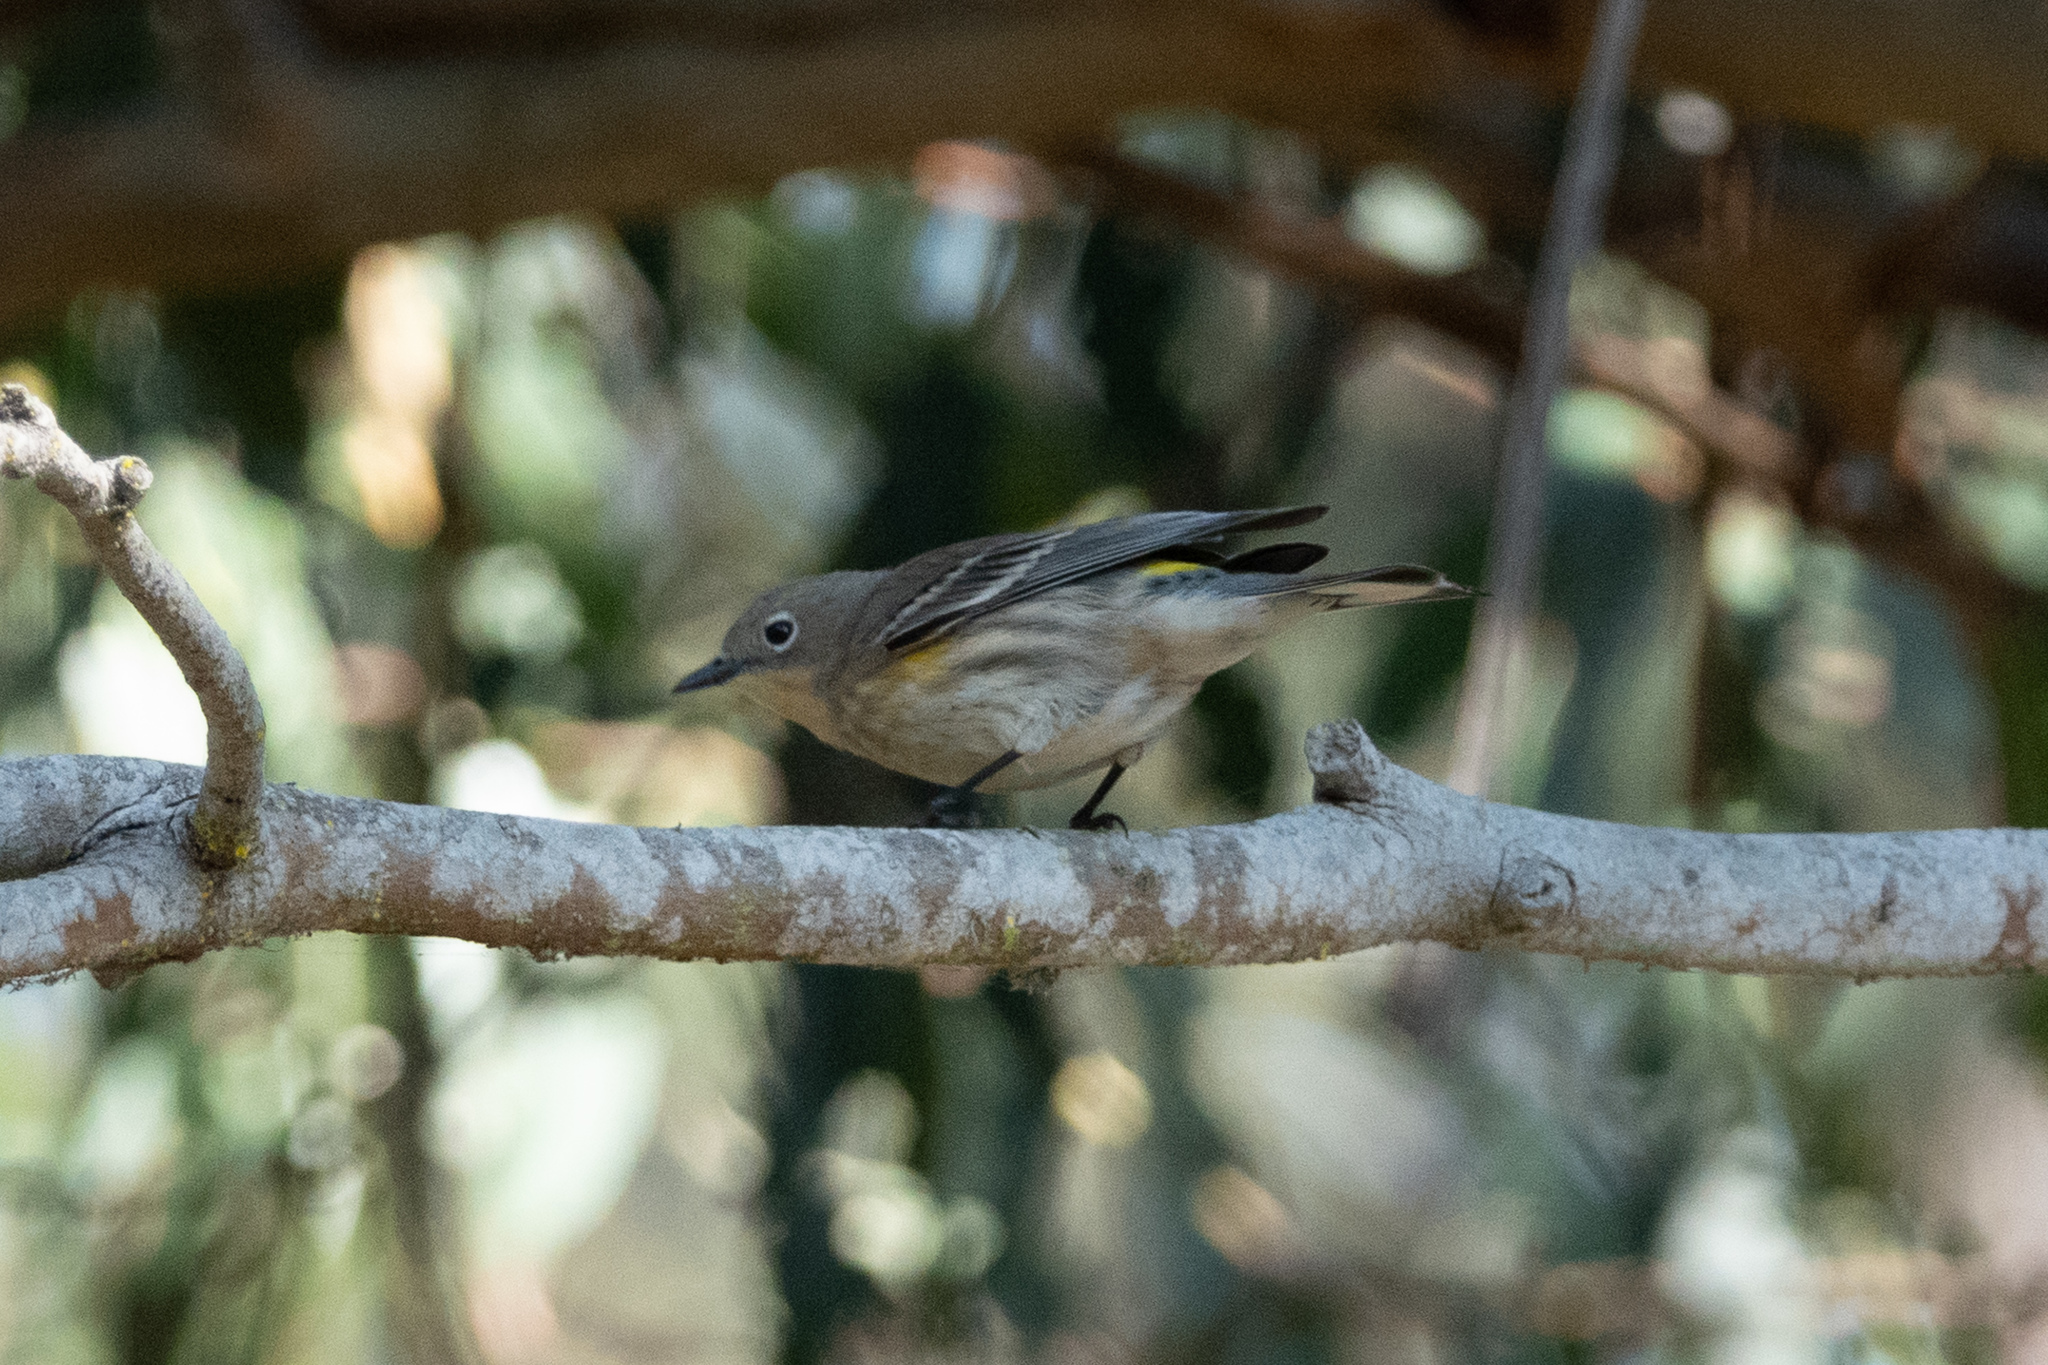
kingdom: Animalia
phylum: Chordata
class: Aves
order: Passeriformes
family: Parulidae
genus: Setophaga
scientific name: Setophaga coronata
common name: Myrtle warbler
